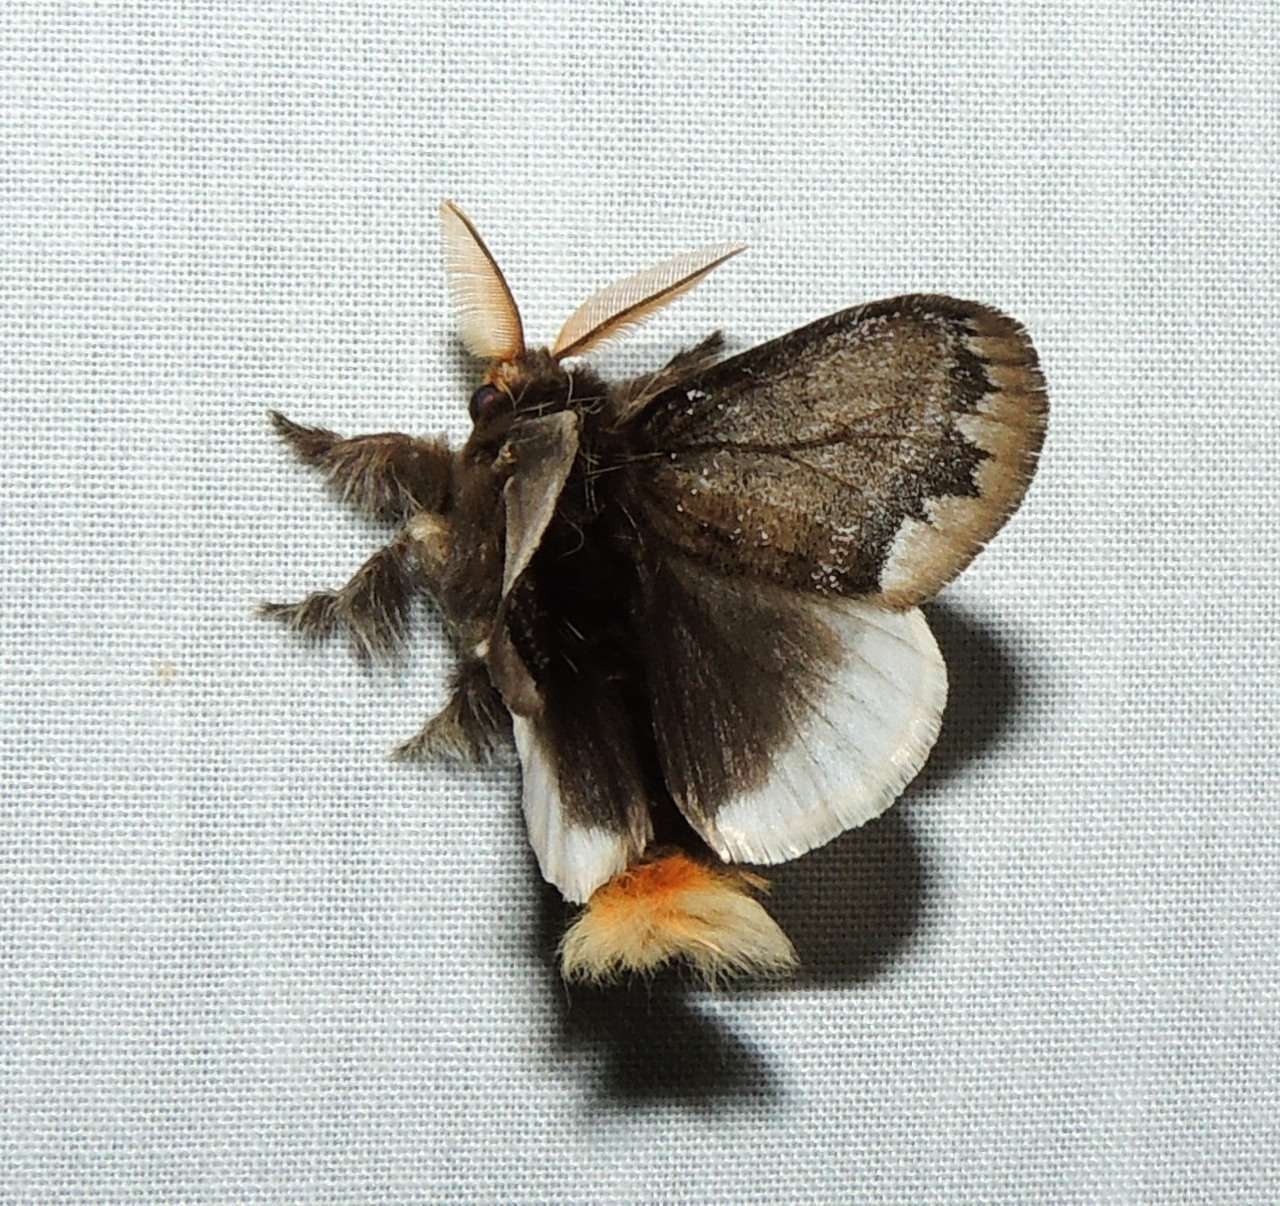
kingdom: Animalia
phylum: Arthropoda
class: Insecta
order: Lepidoptera
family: Erebidae
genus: Euproctis
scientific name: Euproctis
